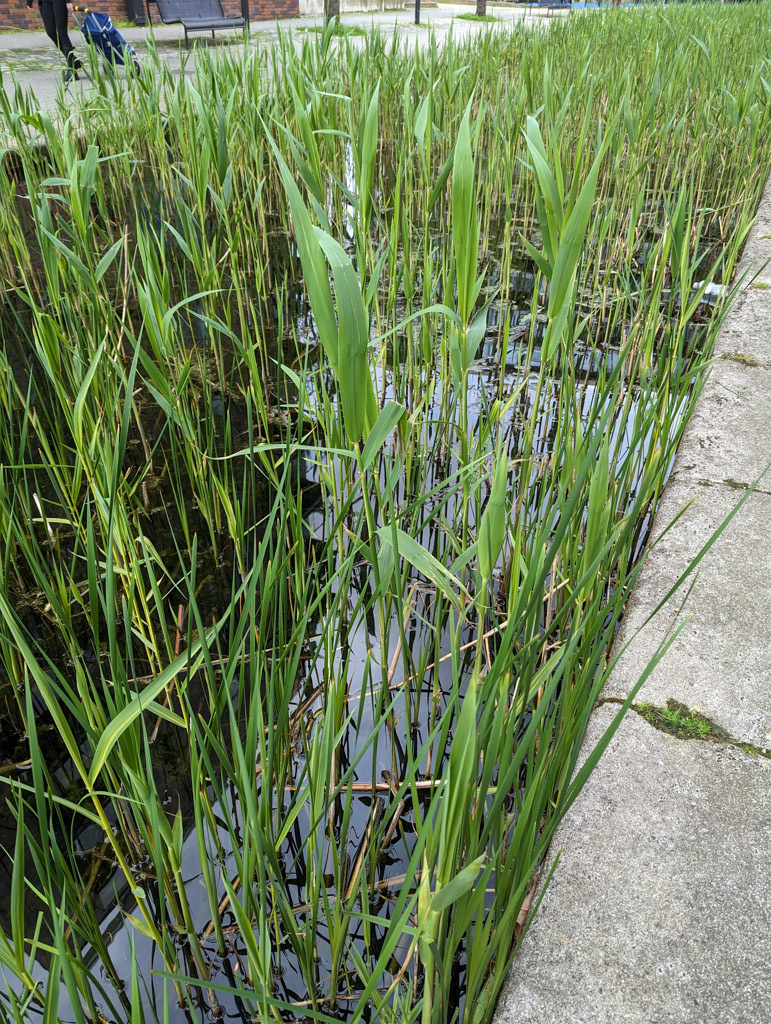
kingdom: Plantae
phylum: Tracheophyta
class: Liliopsida
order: Poales
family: Poaceae
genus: Phragmites
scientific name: Phragmites australis
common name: Common reed
